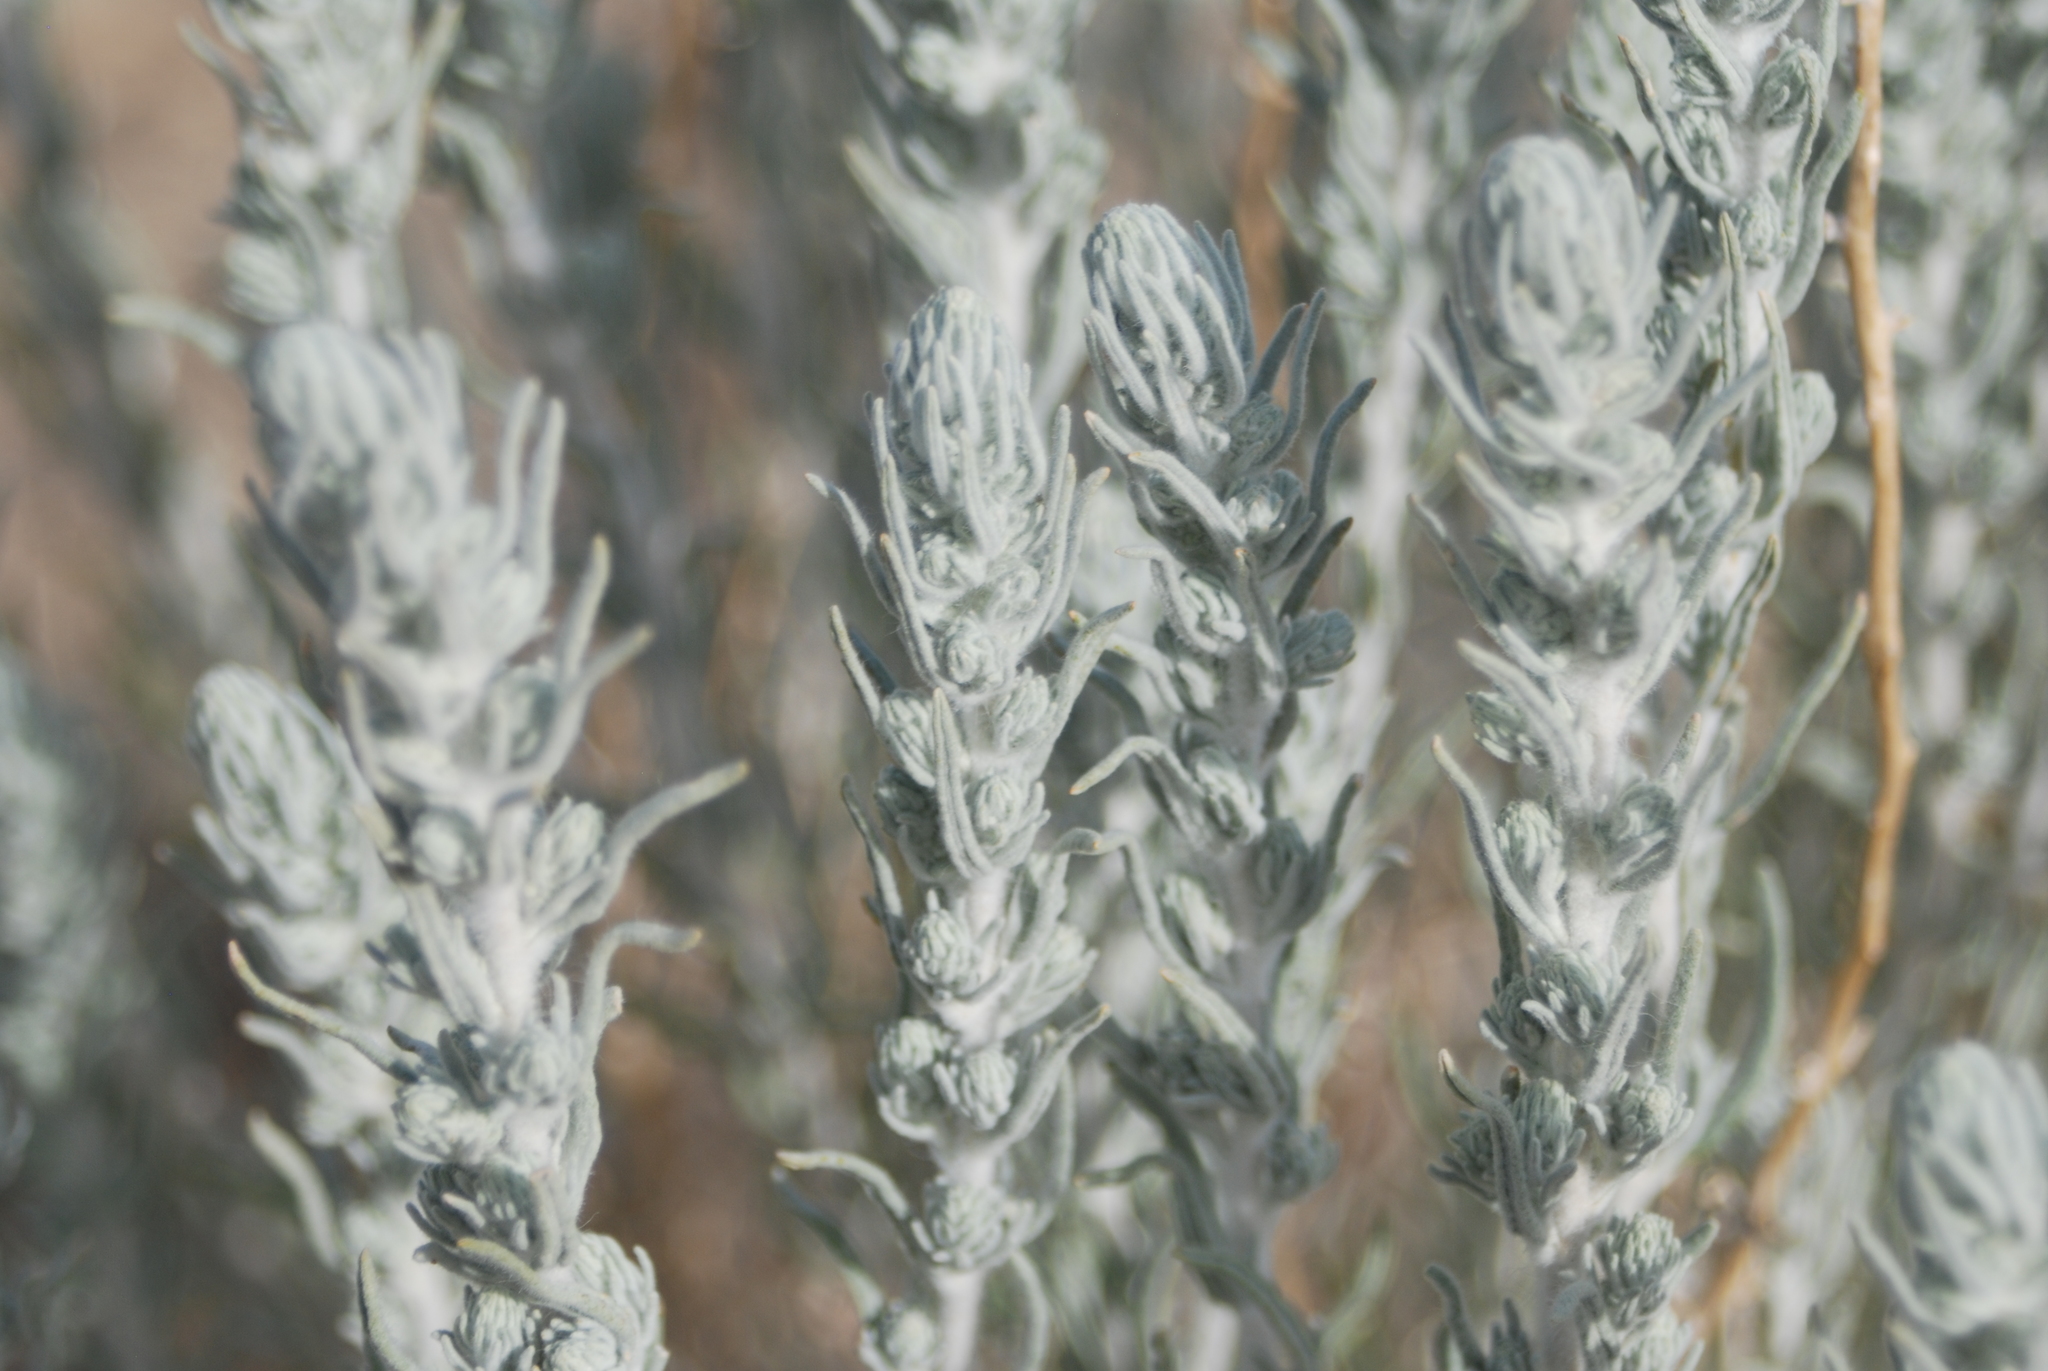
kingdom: Plantae
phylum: Tracheophyta
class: Magnoliopsida
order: Caryophyllales
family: Amaranthaceae
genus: Krascheninnikovia
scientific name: Krascheninnikovia lanata
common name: Winterfat
